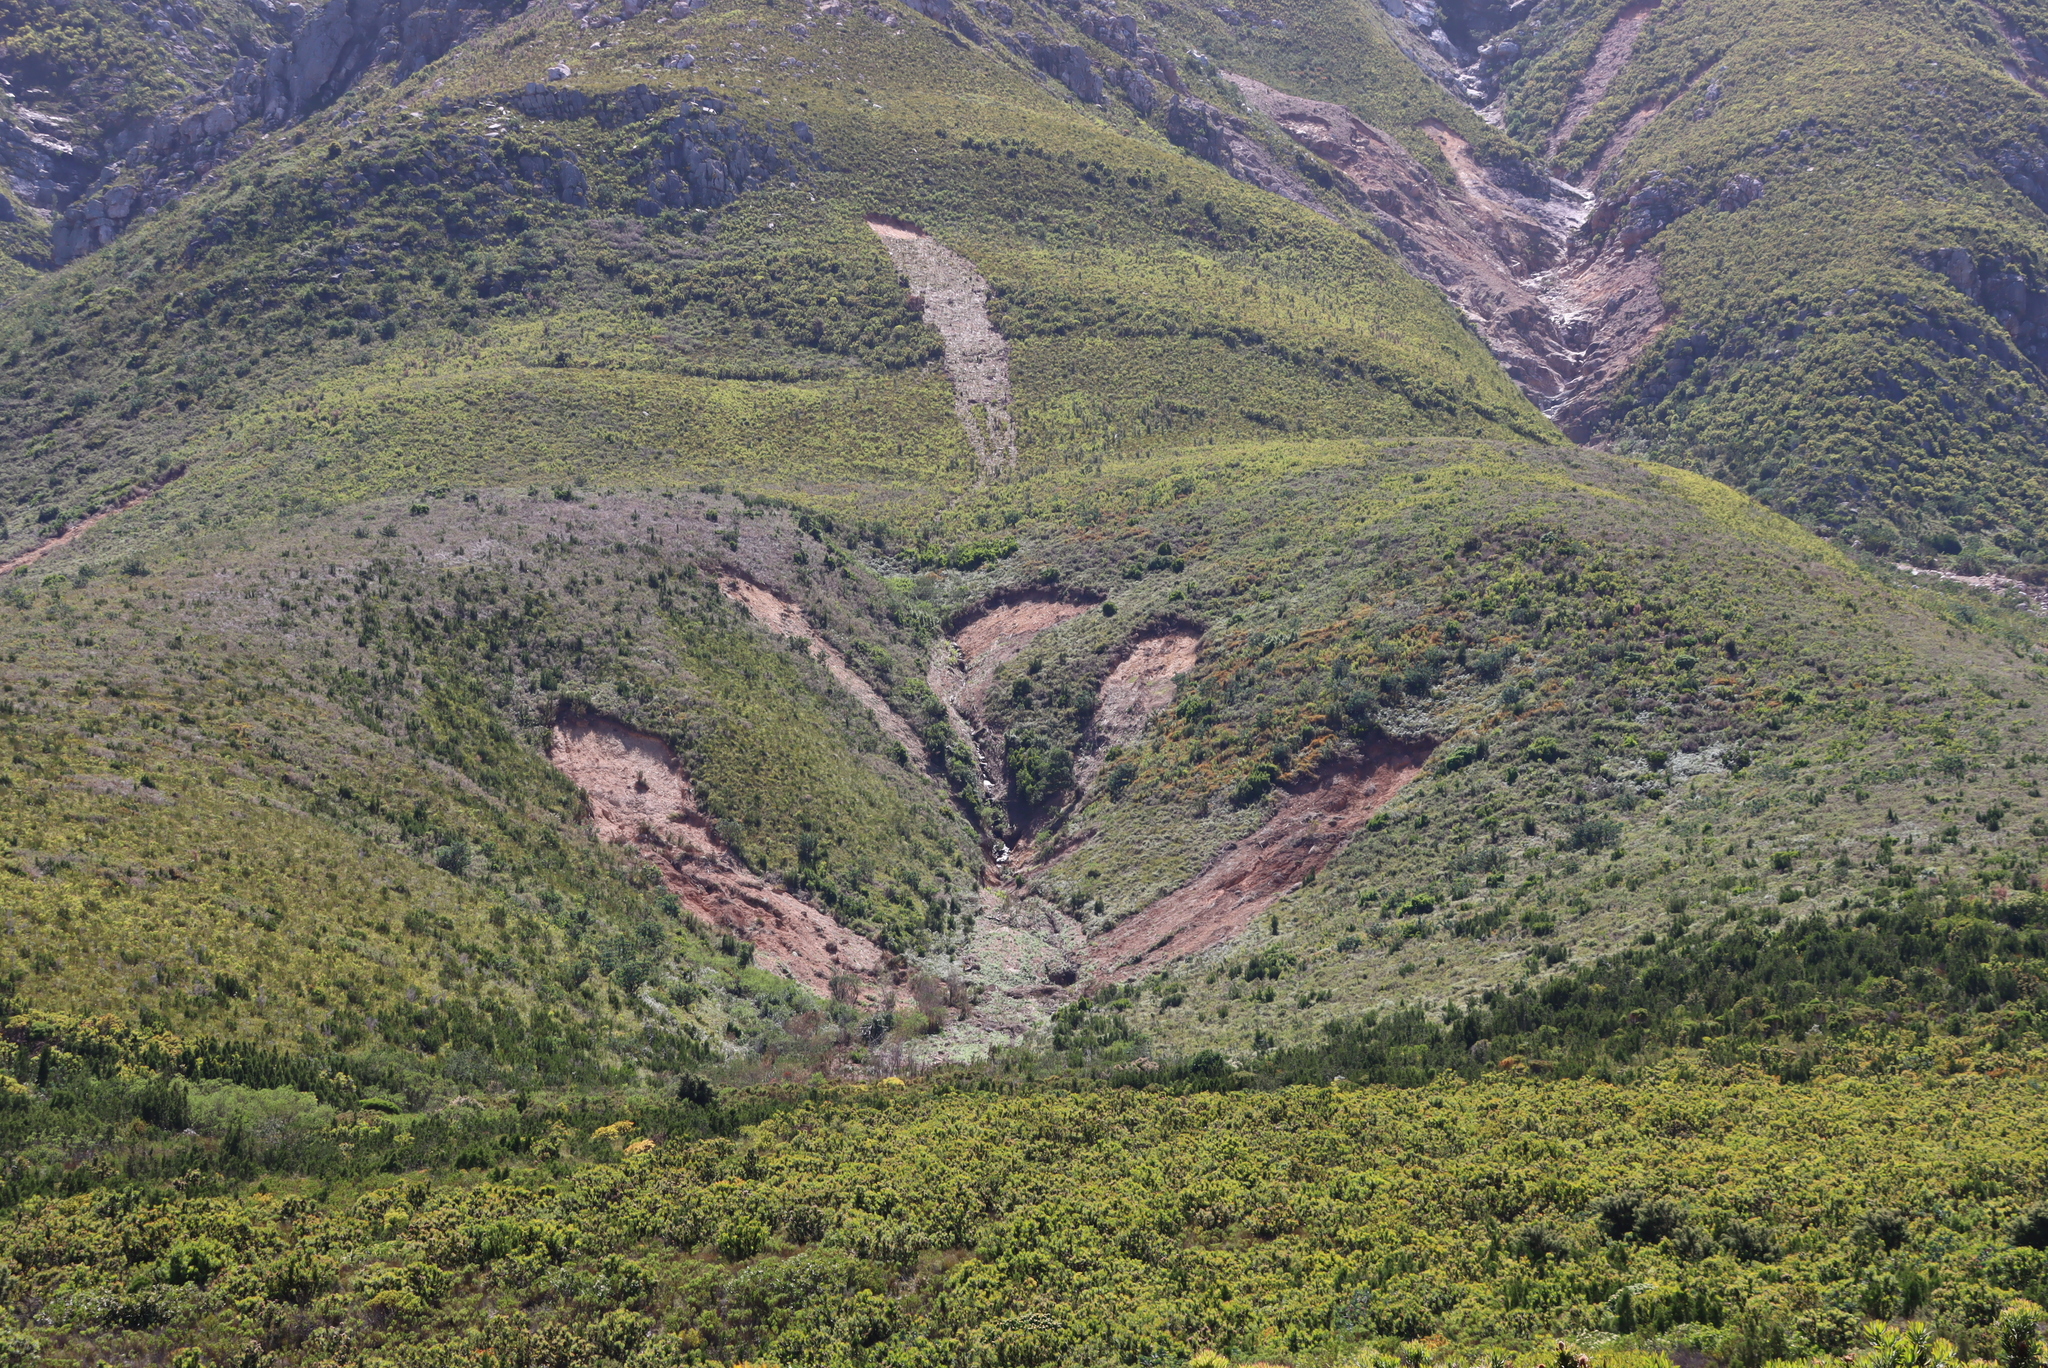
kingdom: Plantae
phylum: Tracheophyta
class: Magnoliopsida
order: Proteales
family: Proteaceae
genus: Hakea
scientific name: Hakea sericea
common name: Needle bush
